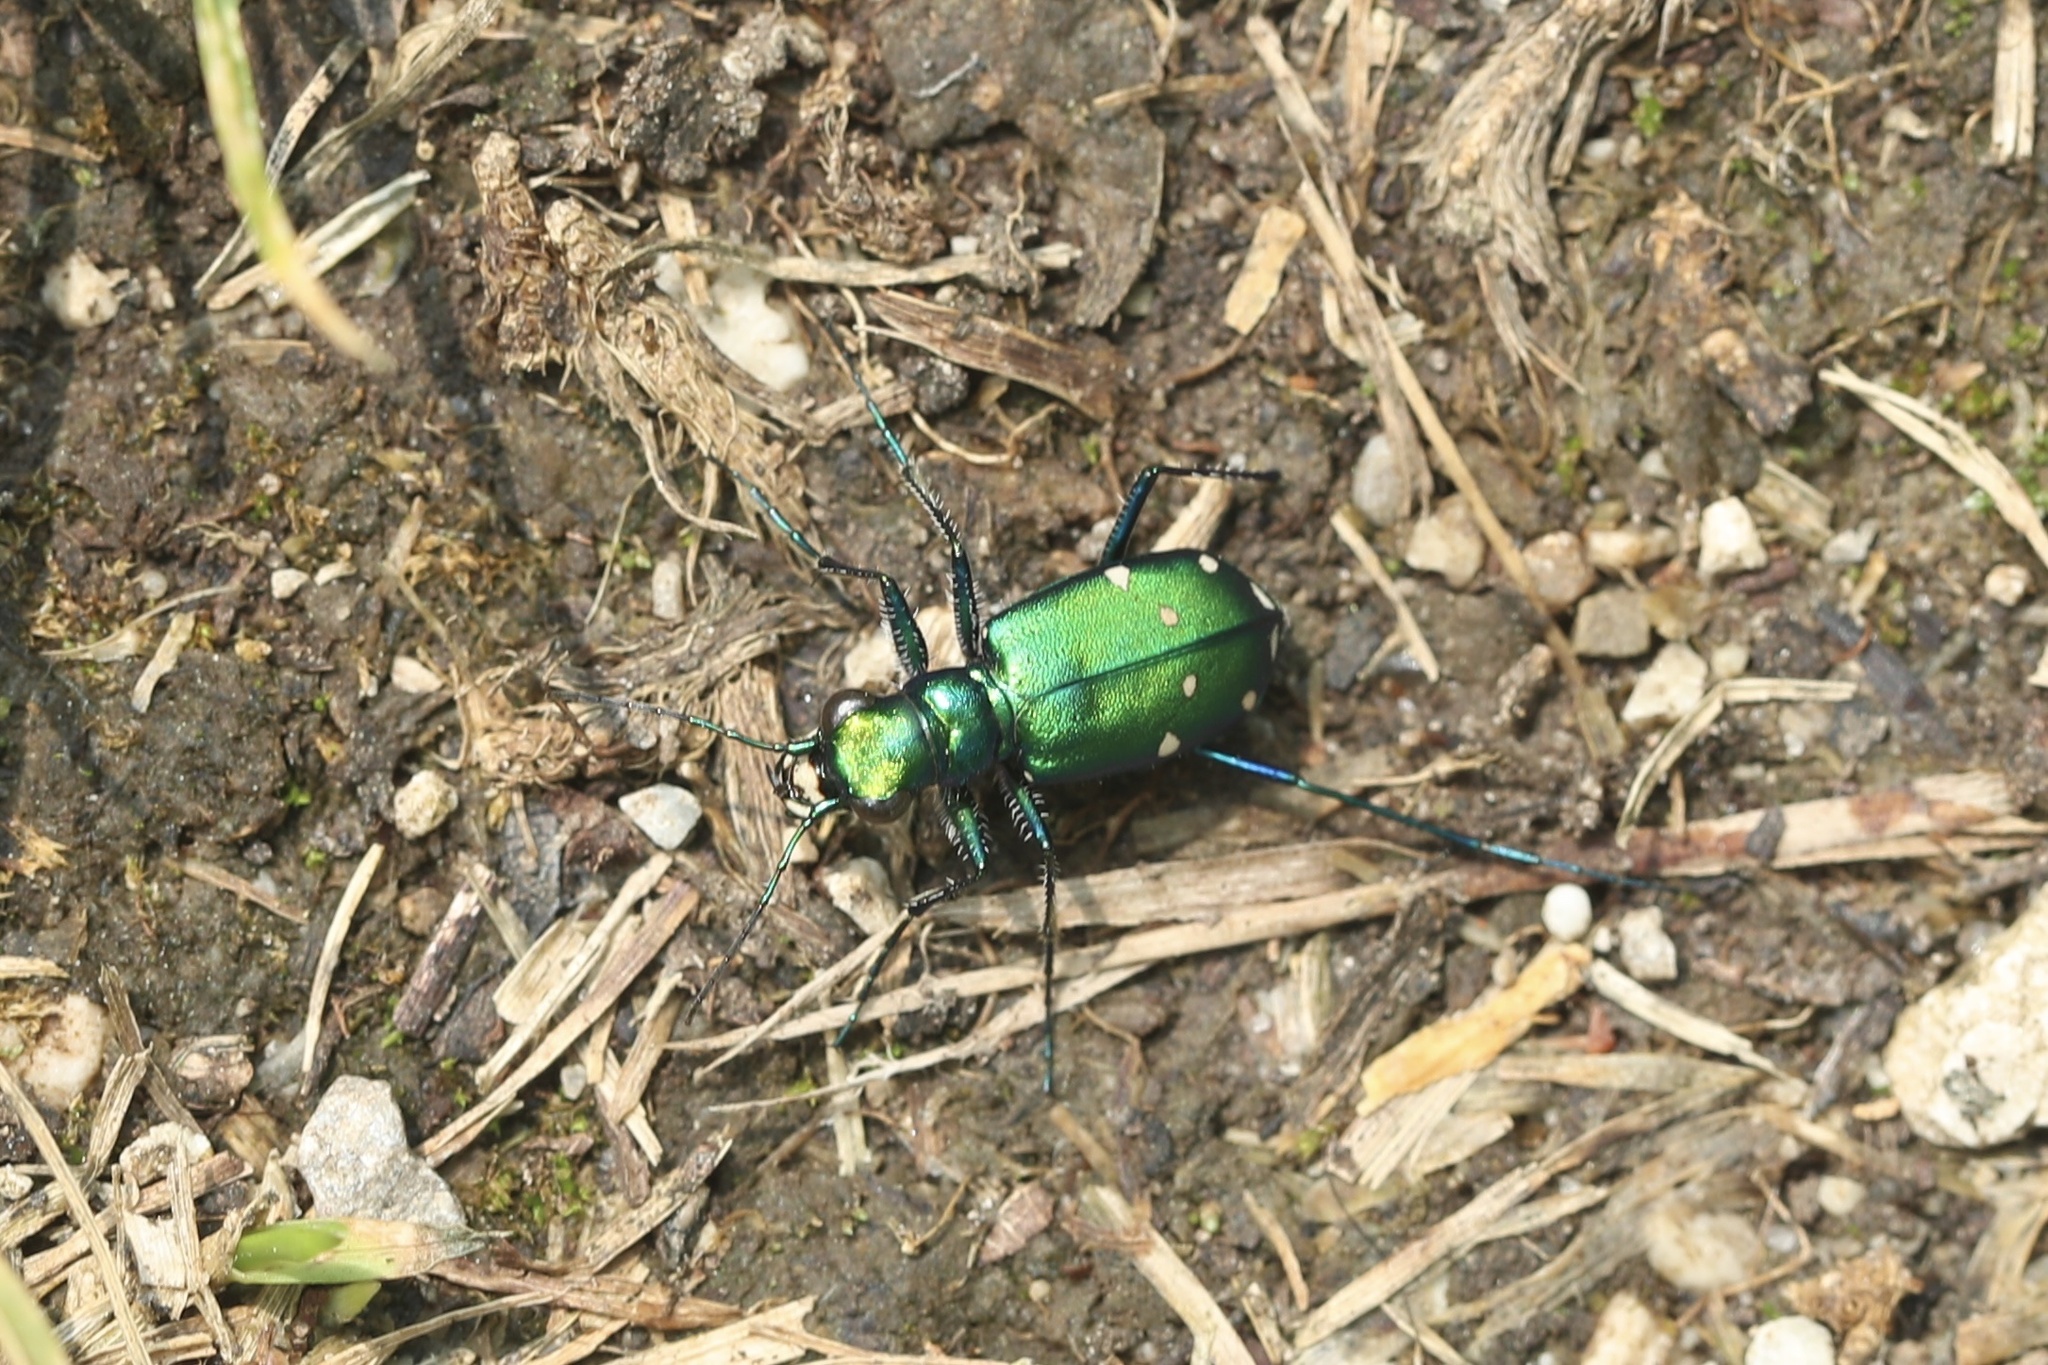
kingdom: Animalia
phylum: Arthropoda
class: Insecta
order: Coleoptera
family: Carabidae
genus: Cicindela
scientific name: Cicindela sexguttata
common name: Six-spotted tiger beetle
